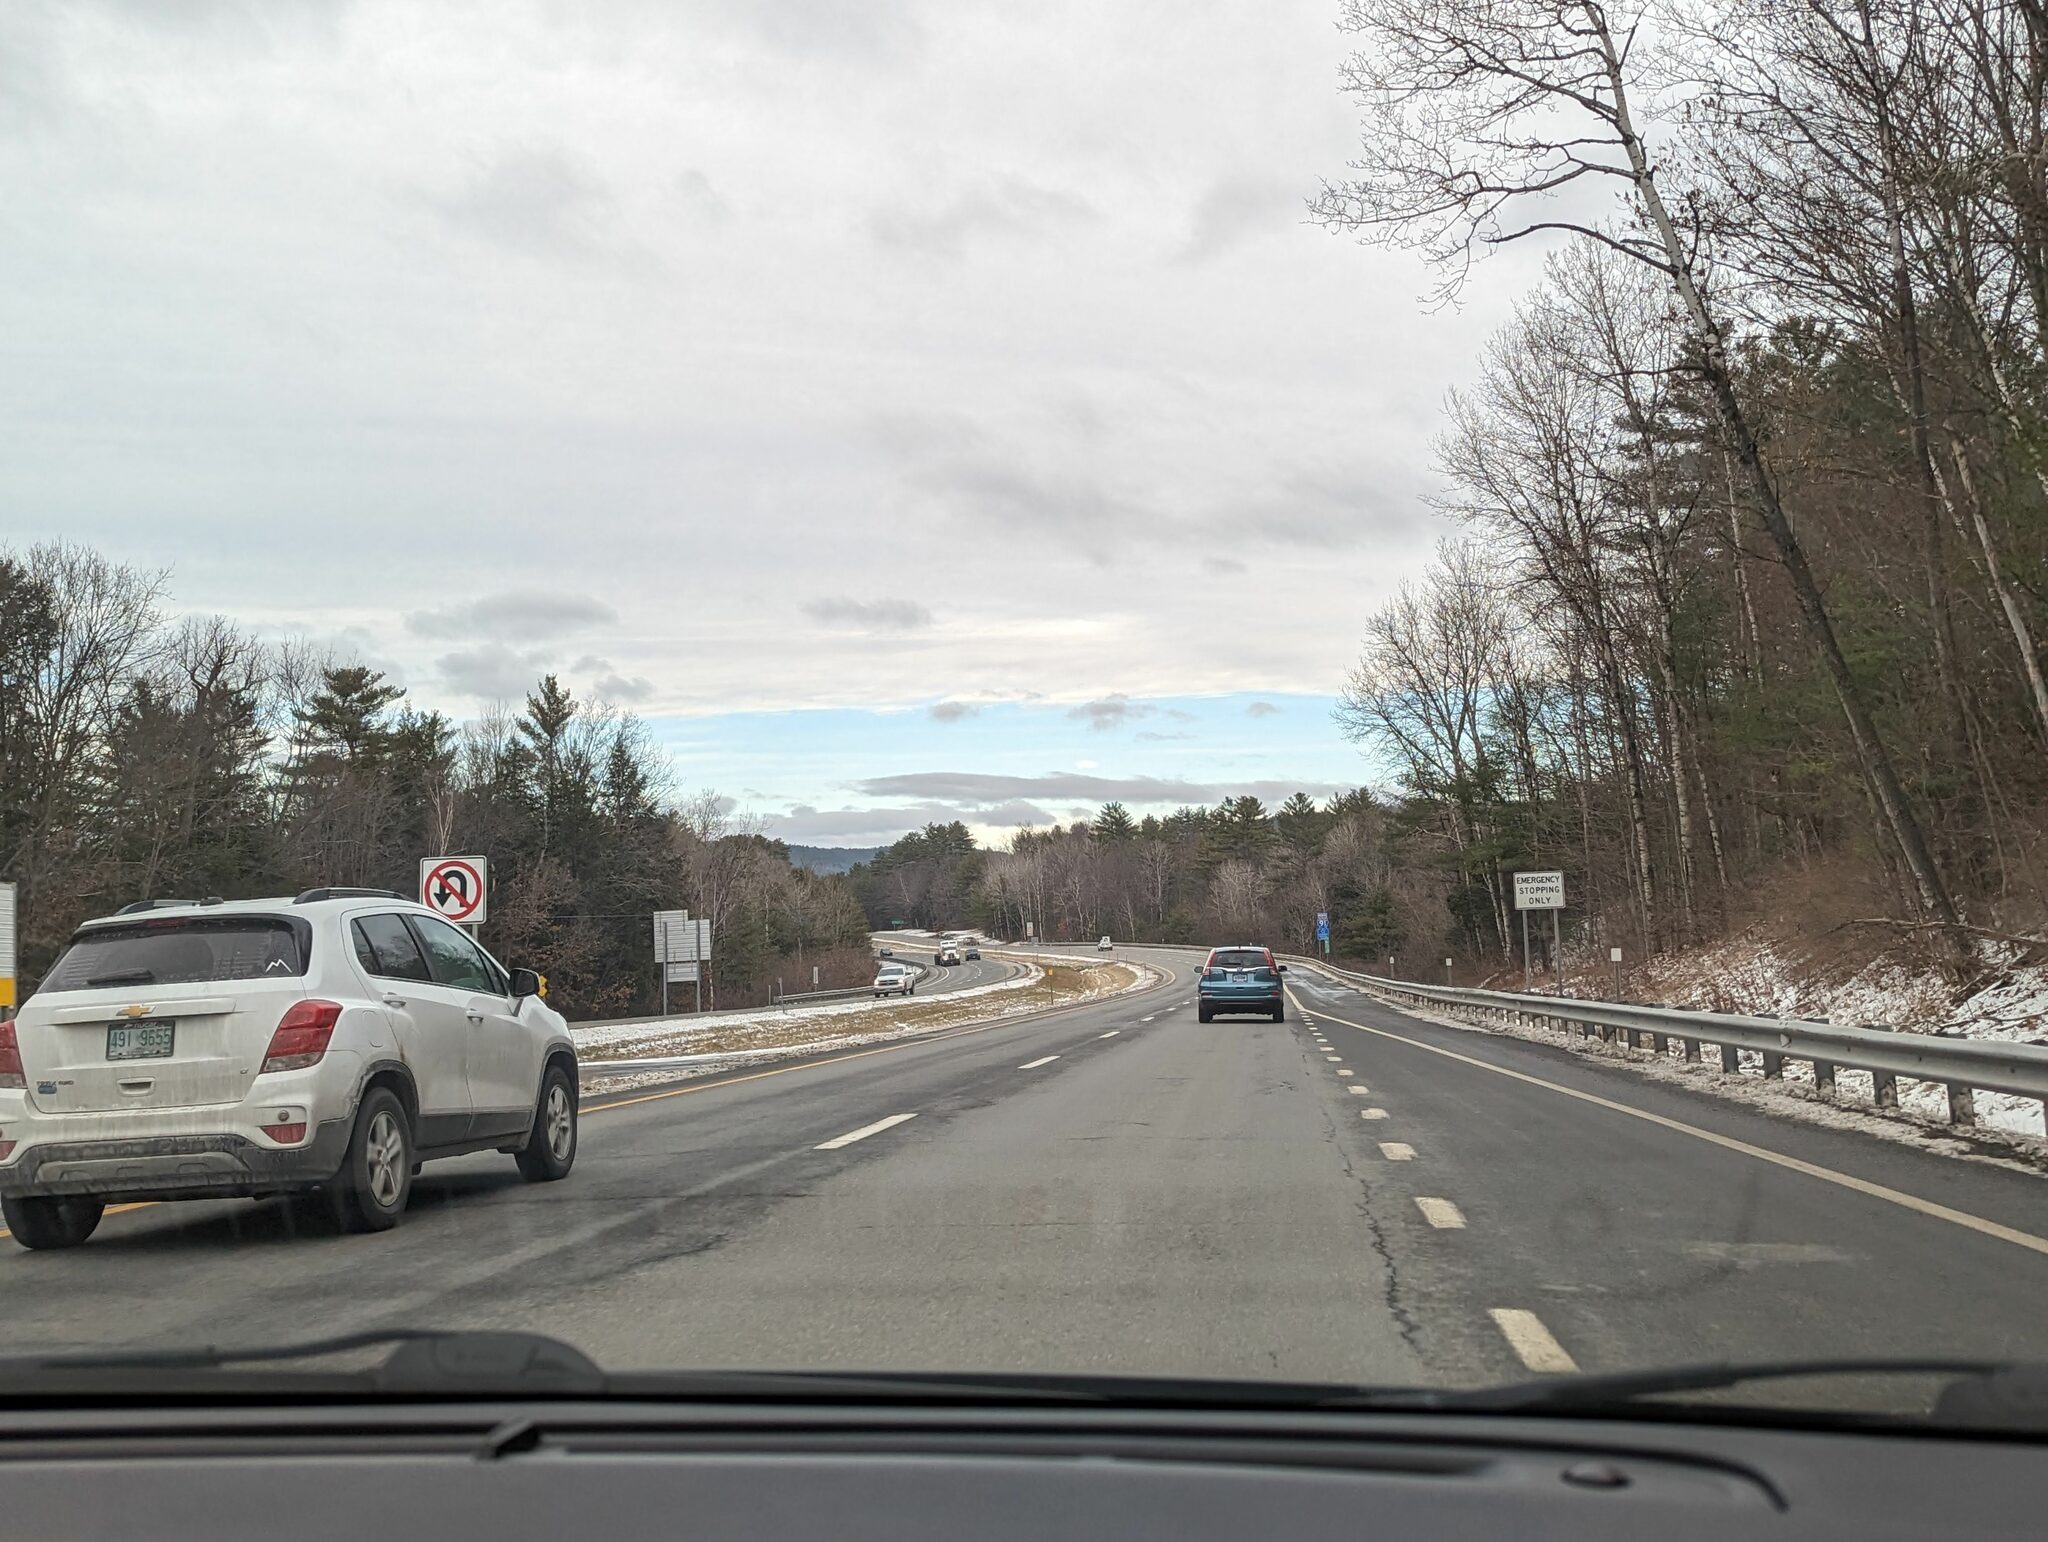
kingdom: Plantae
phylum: Tracheophyta
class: Pinopsida
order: Pinales
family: Pinaceae
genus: Pinus
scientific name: Pinus strobus
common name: Weymouth pine
